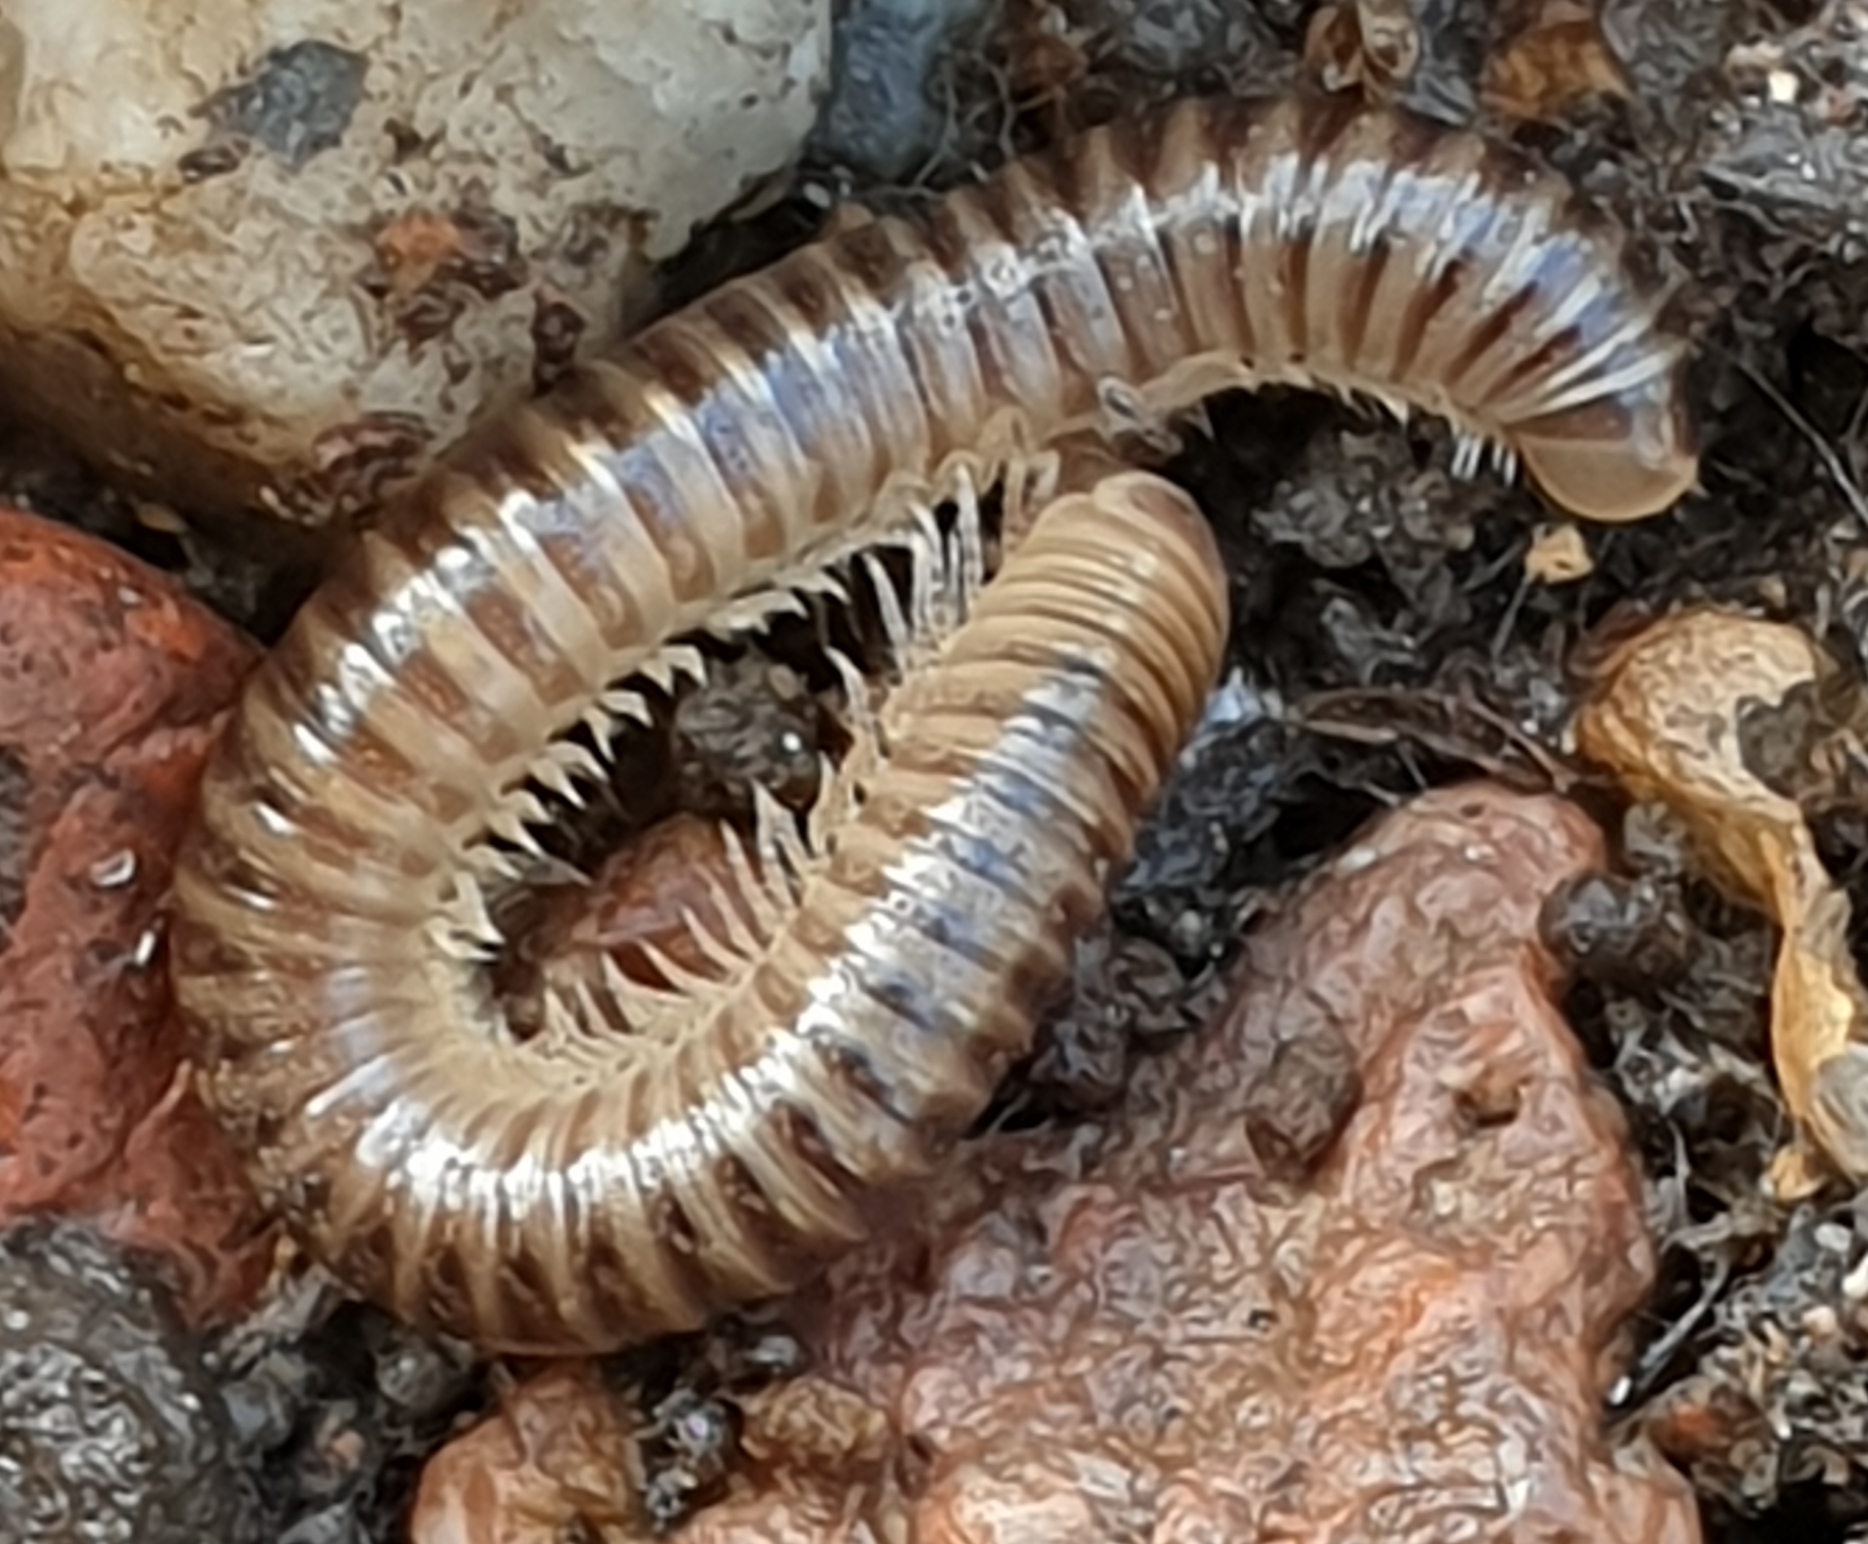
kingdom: Animalia
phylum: Arthropoda
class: Diplopoda
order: Julida
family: Julidae
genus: Cylindroiulus
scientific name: Cylindroiulus caeruleocinctus
